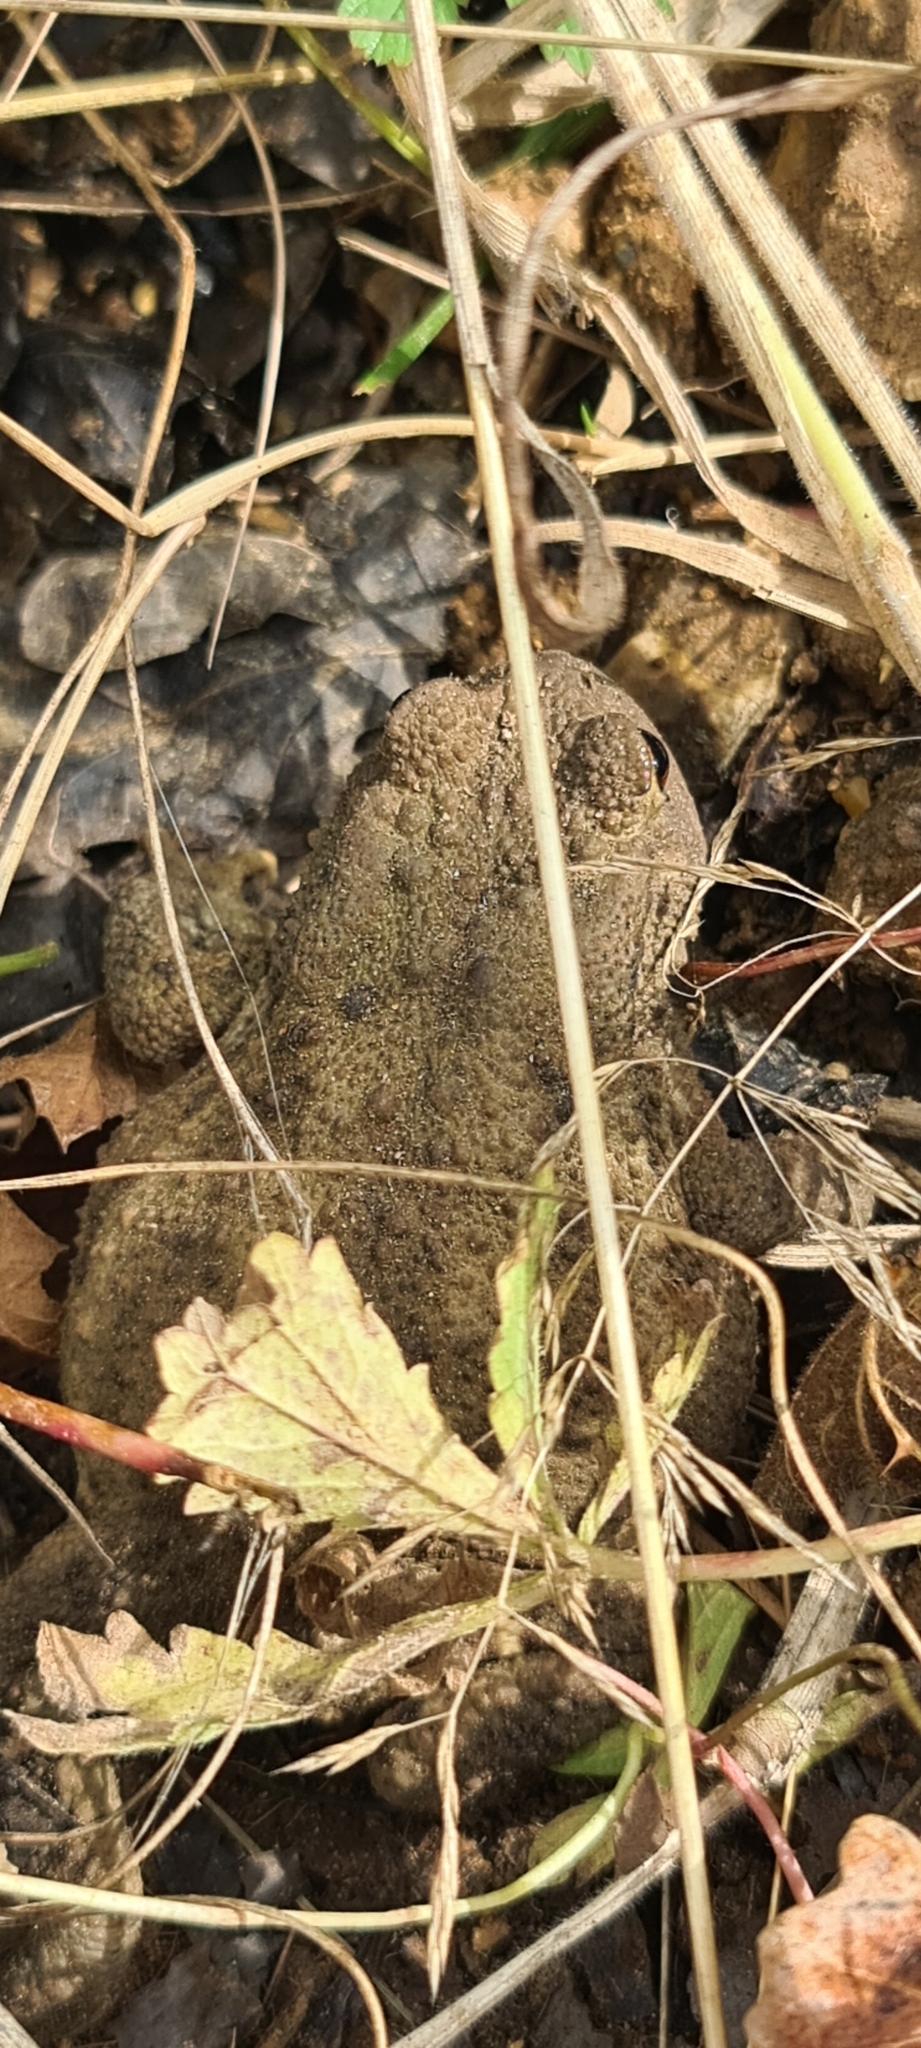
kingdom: Animalia
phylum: Chordata
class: Amphibia
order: Anura
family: Bufonidae
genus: Bufo
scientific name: Bufo bufo
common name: Common toad
